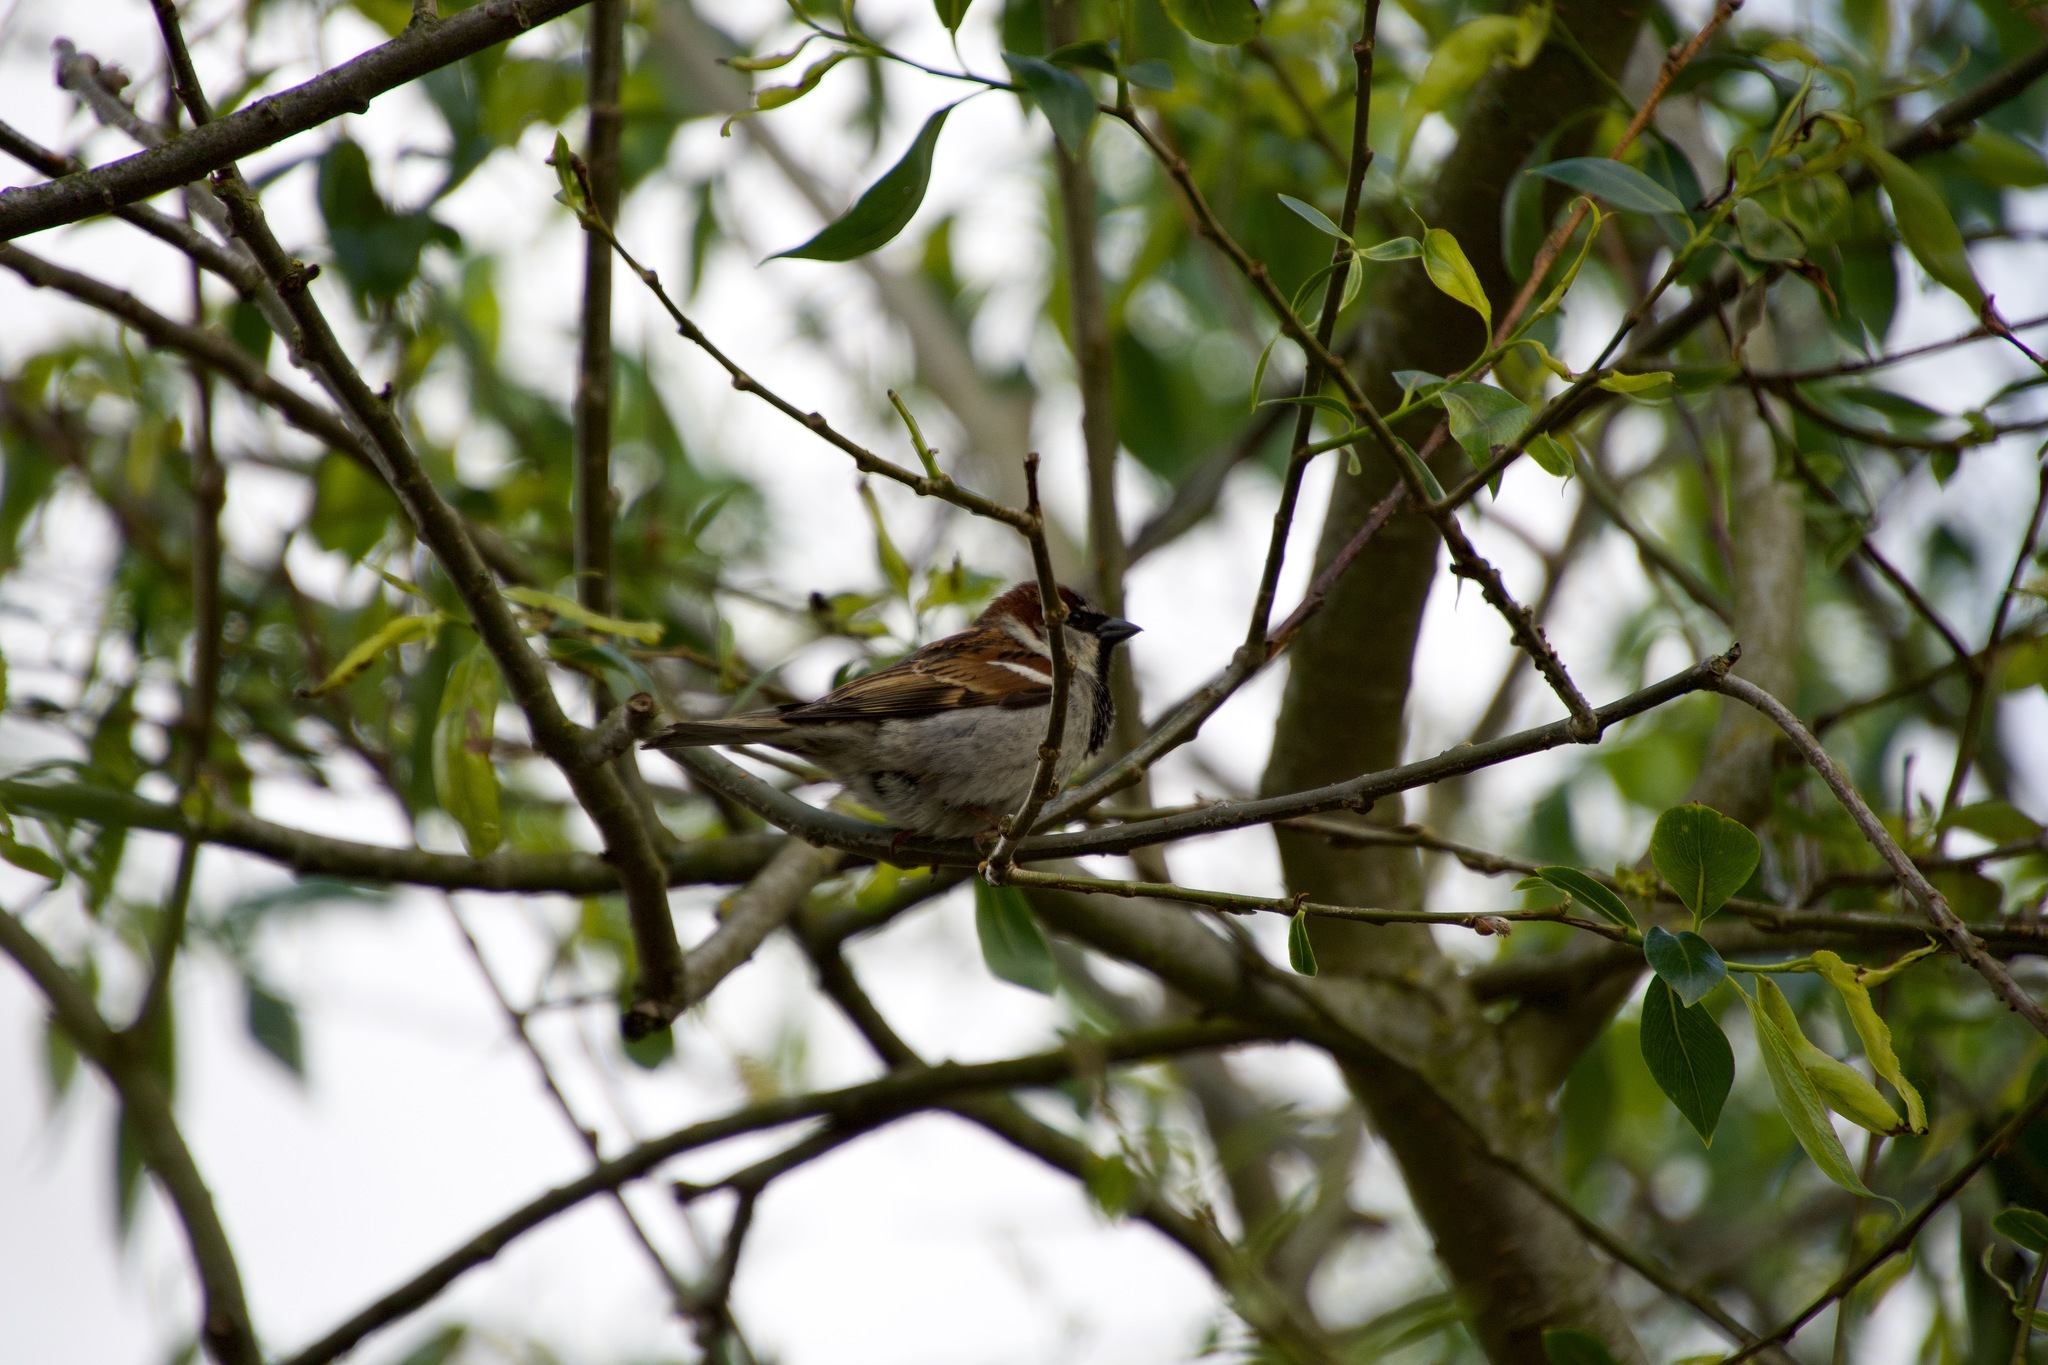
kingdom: Animalia
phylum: Chordata
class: Aves
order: Passeriformes
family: Passeridae
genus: Passer
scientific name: Passer domesticus
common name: House sparrow
